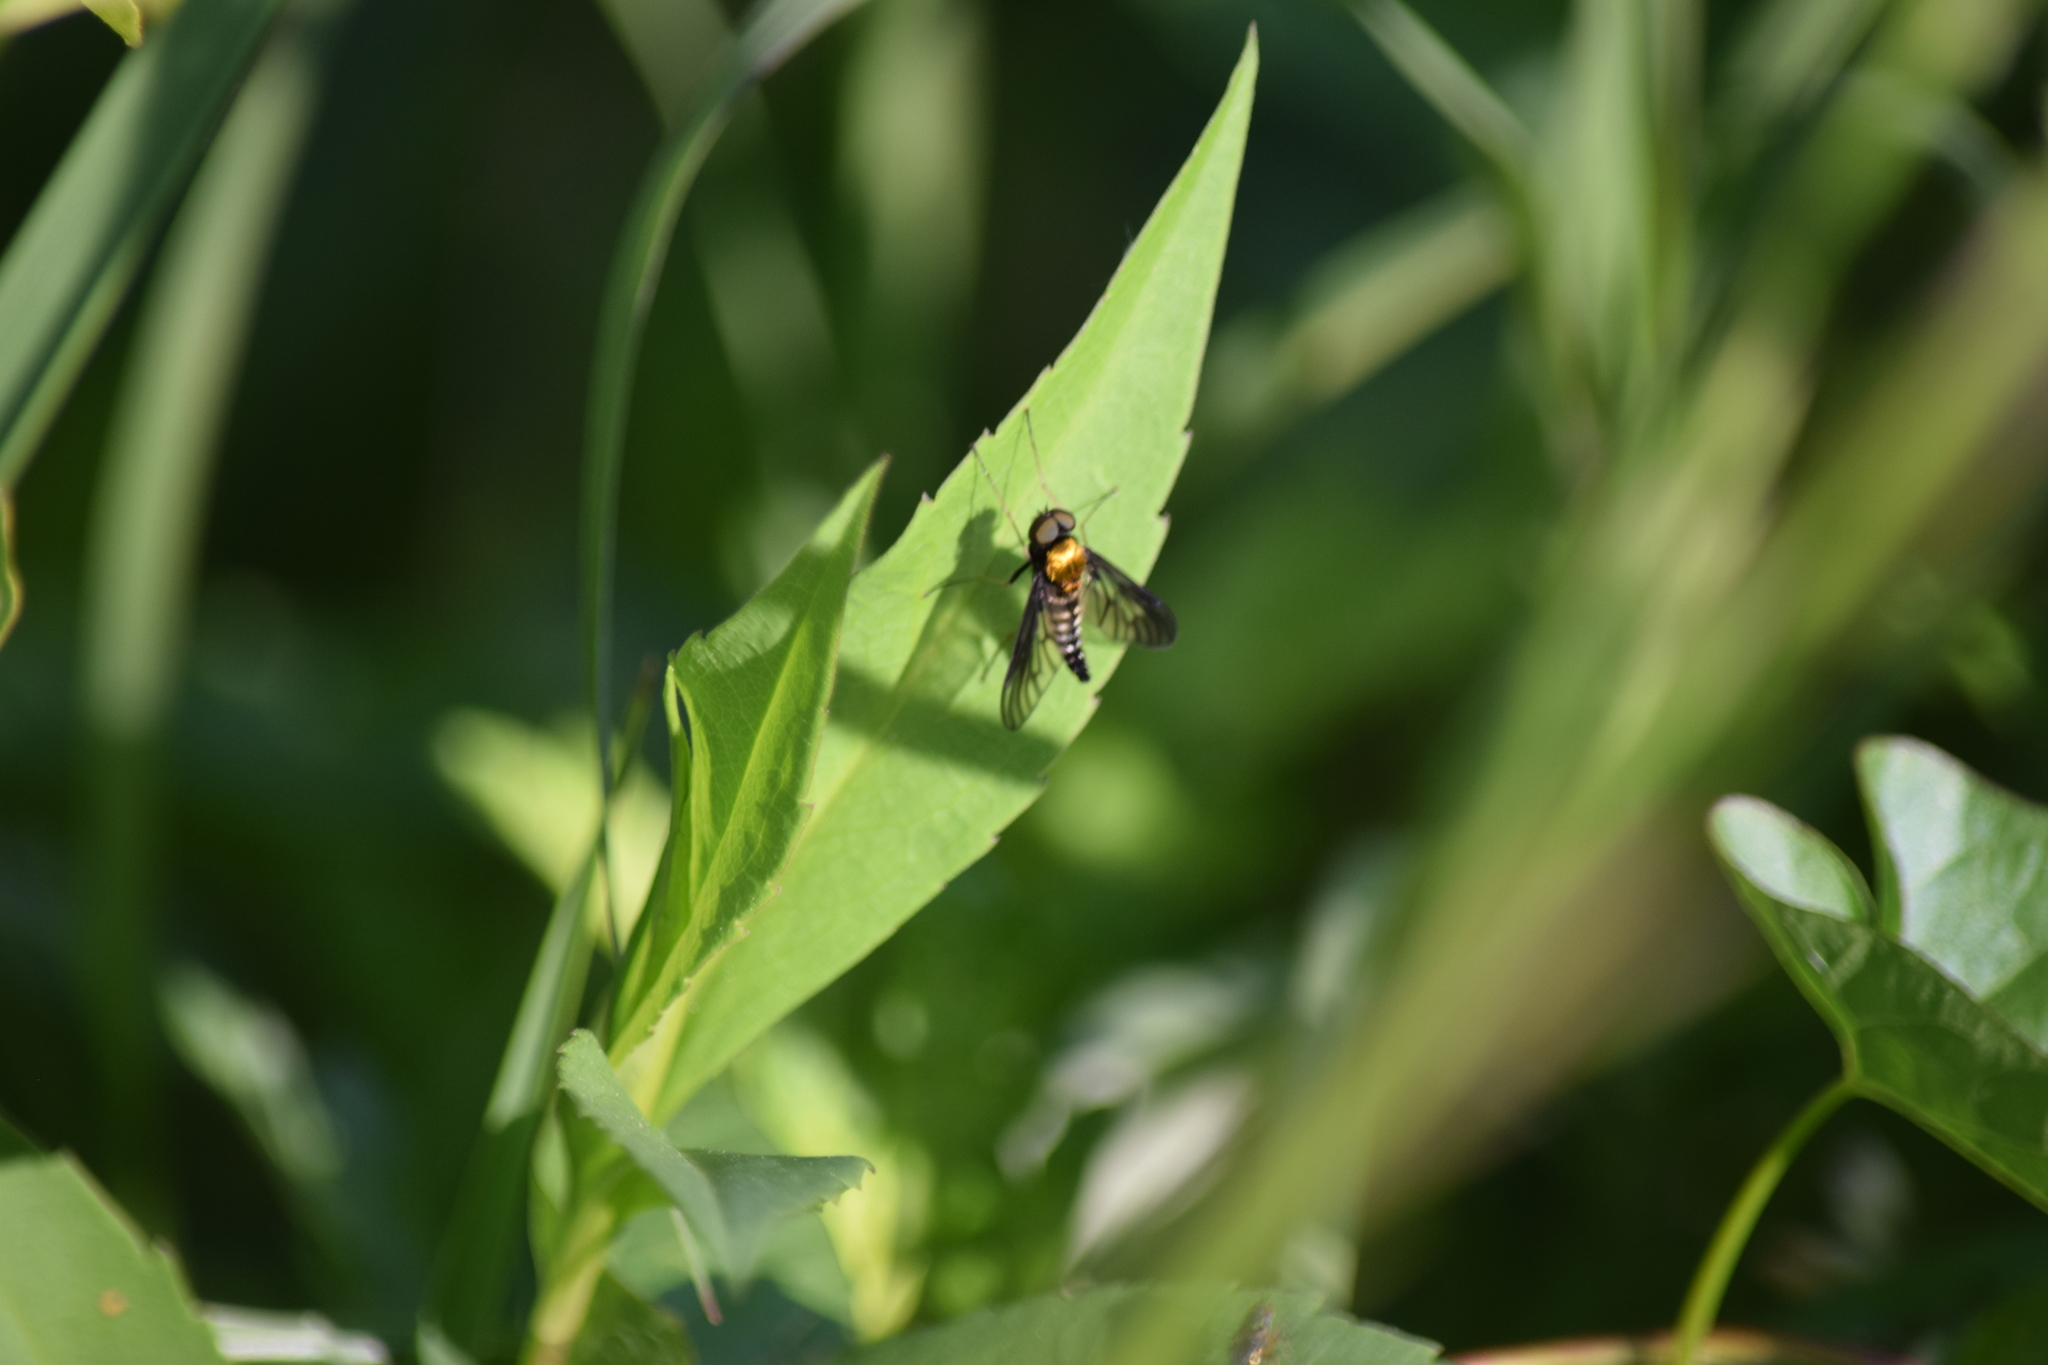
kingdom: Animalia
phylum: Arthropoda
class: Insecta
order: Diptera
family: Rhagionidae
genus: Chrysopilus
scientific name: Chrysopilus thoracicus
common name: Golden-backed snipe fly
